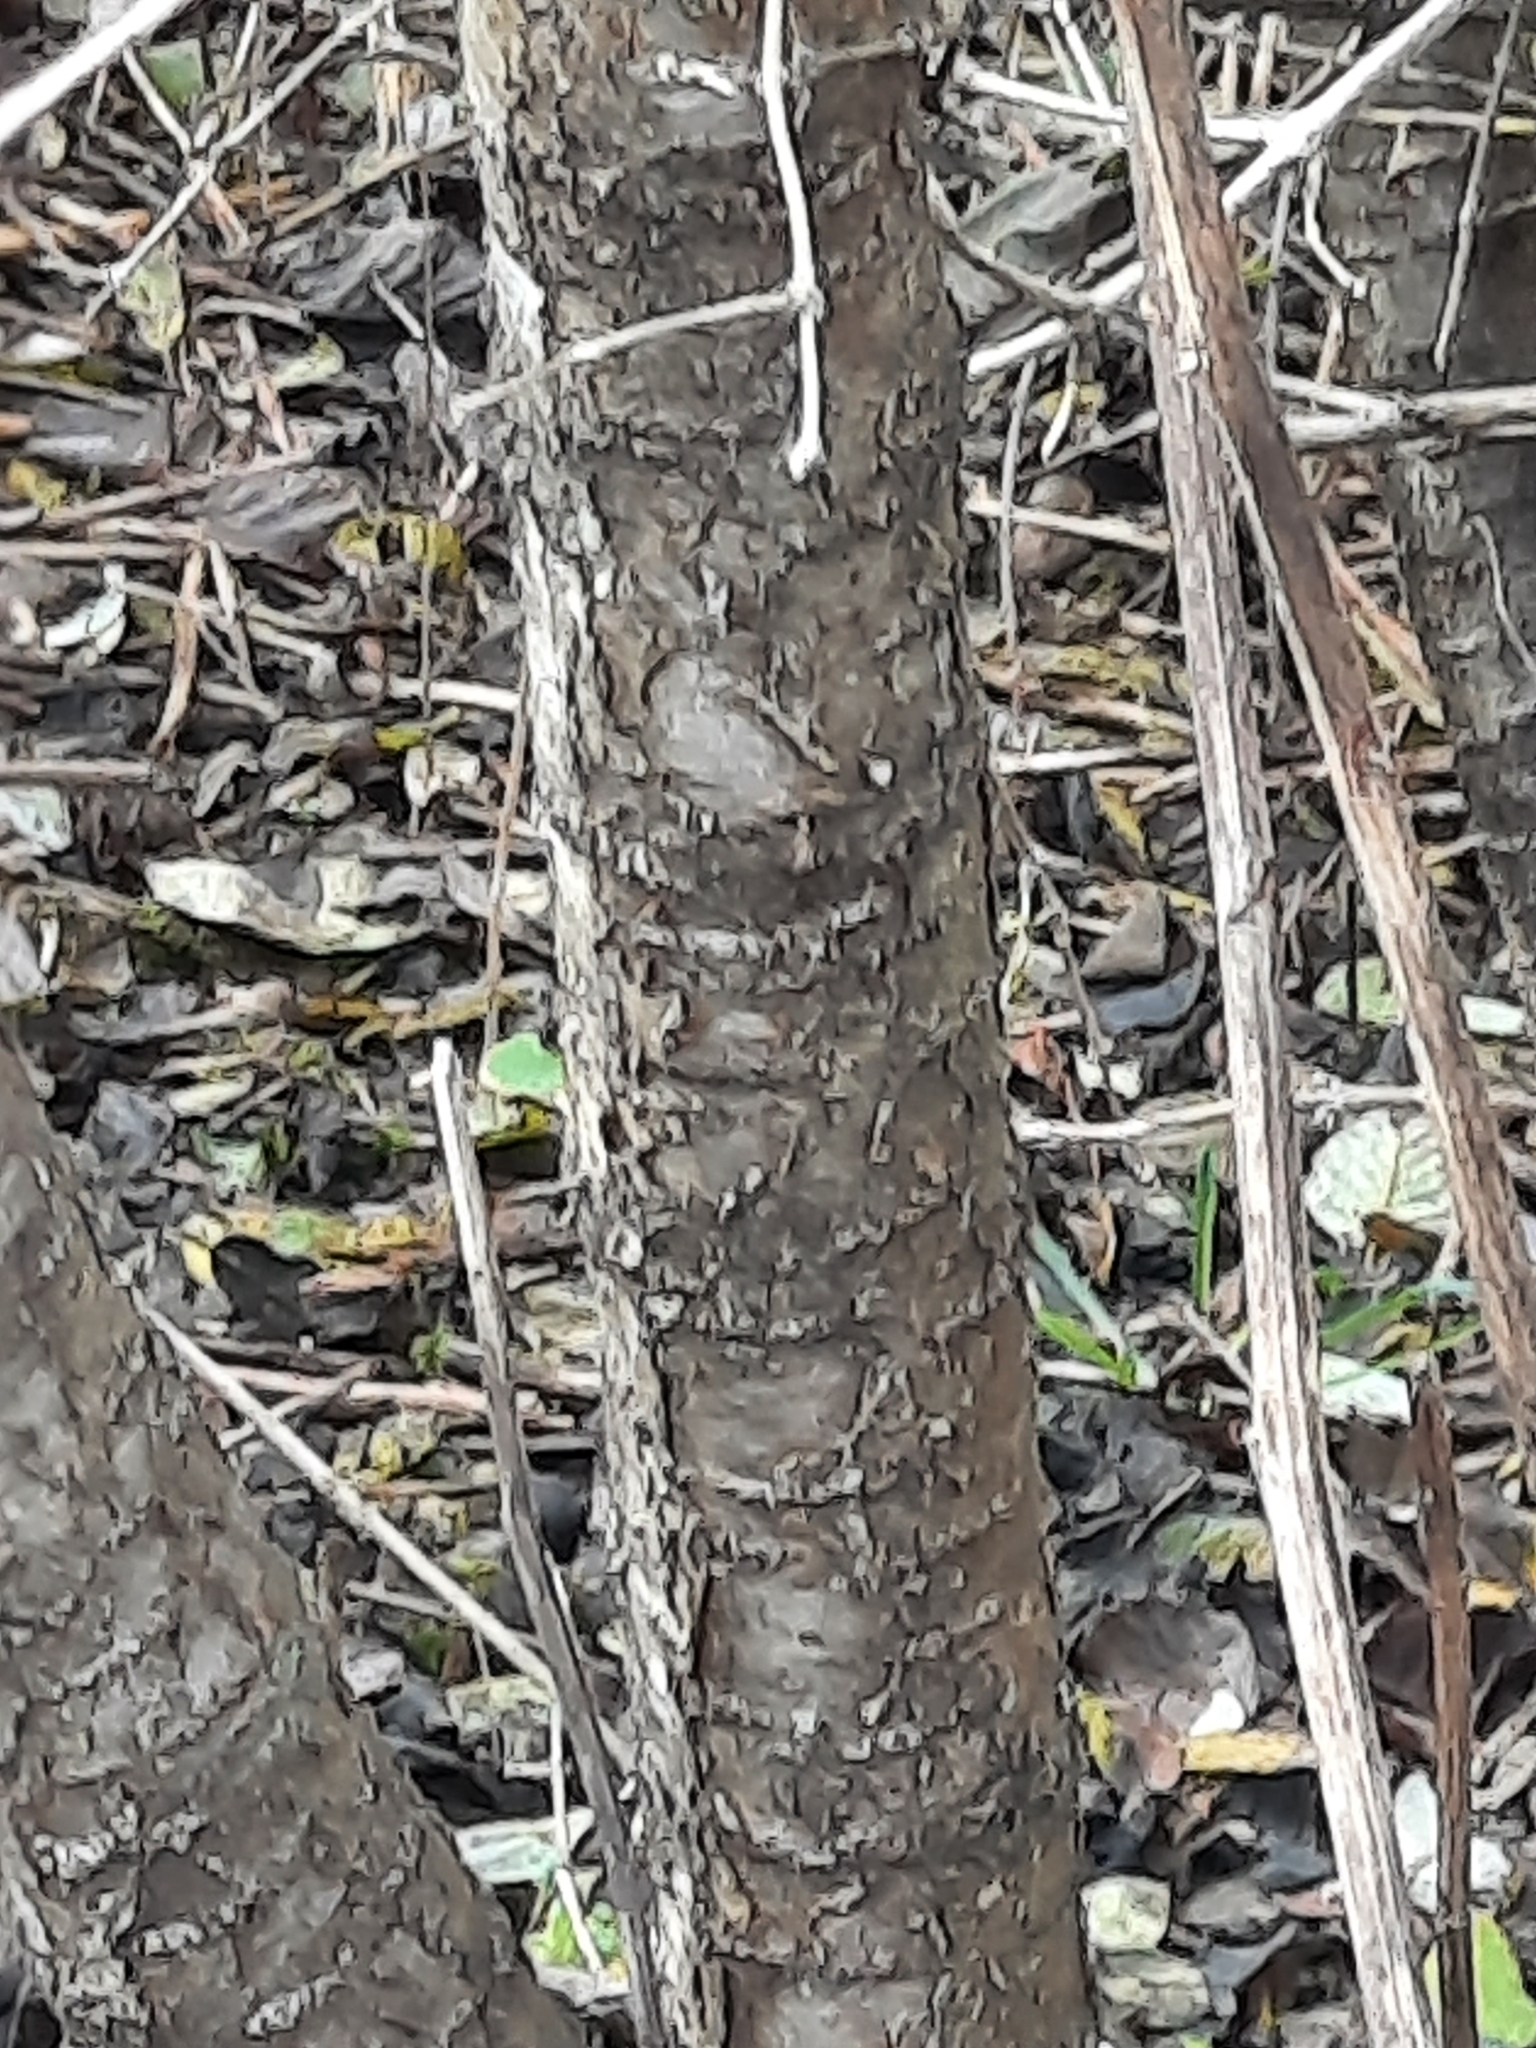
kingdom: Plantae
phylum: Tracheophyta
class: Magnoliopsida
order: Rosales
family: Rhamnaceae
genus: Rhamnus
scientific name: Rhamnus cathartica
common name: Common buckthorn
